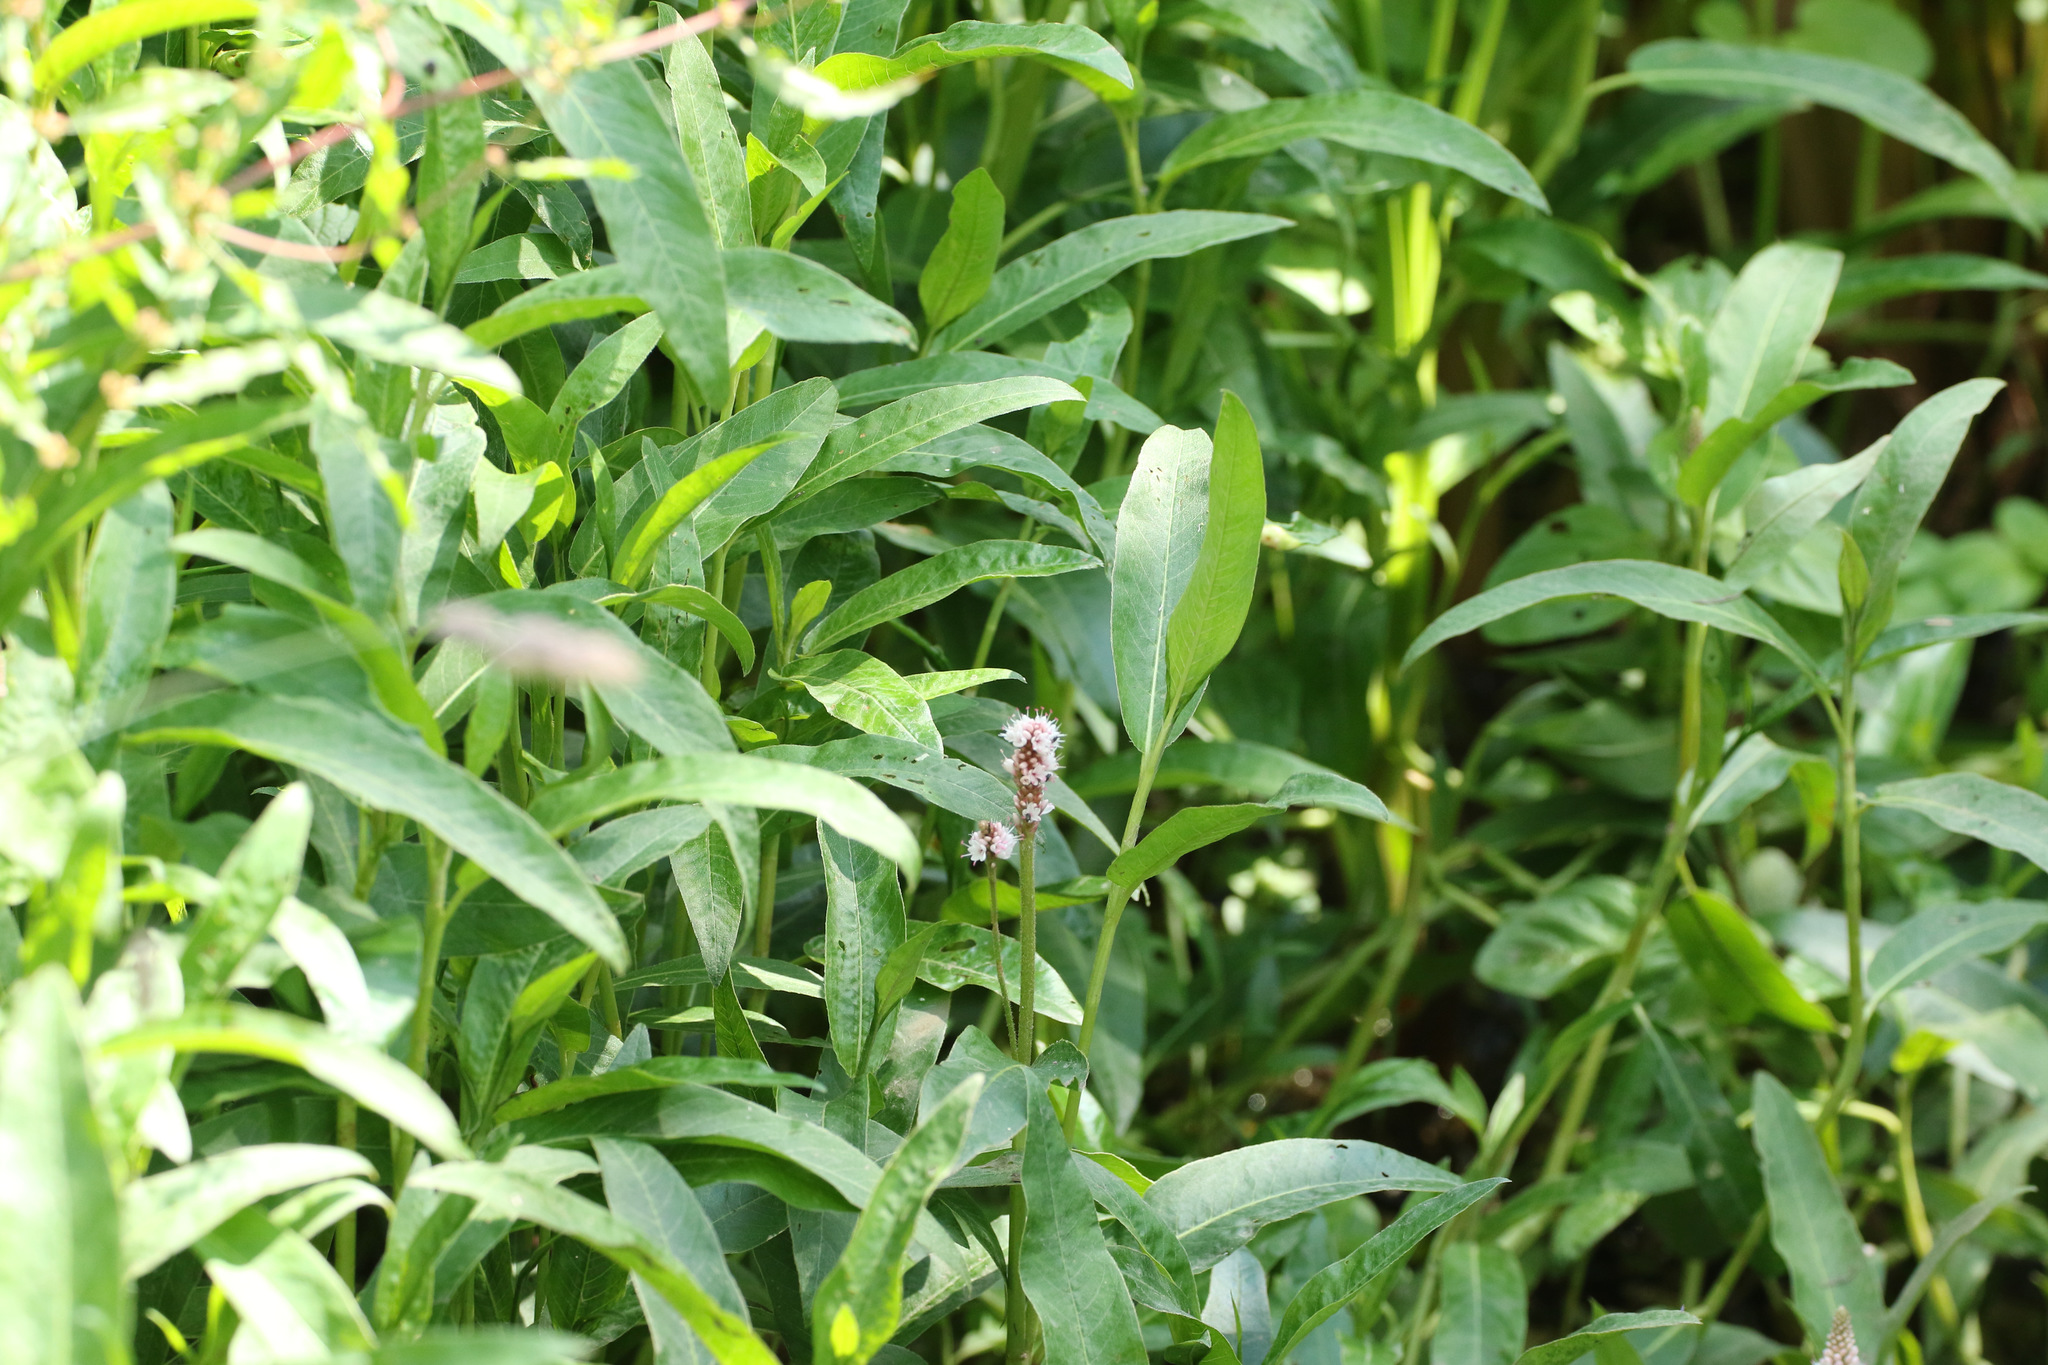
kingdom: Plantae
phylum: Tracheophyta
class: Magnoliopsida
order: Caryophyllales
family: Polygonaceae
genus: Persicaria
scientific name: Persicaria amphibia
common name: Amphibious bistort
